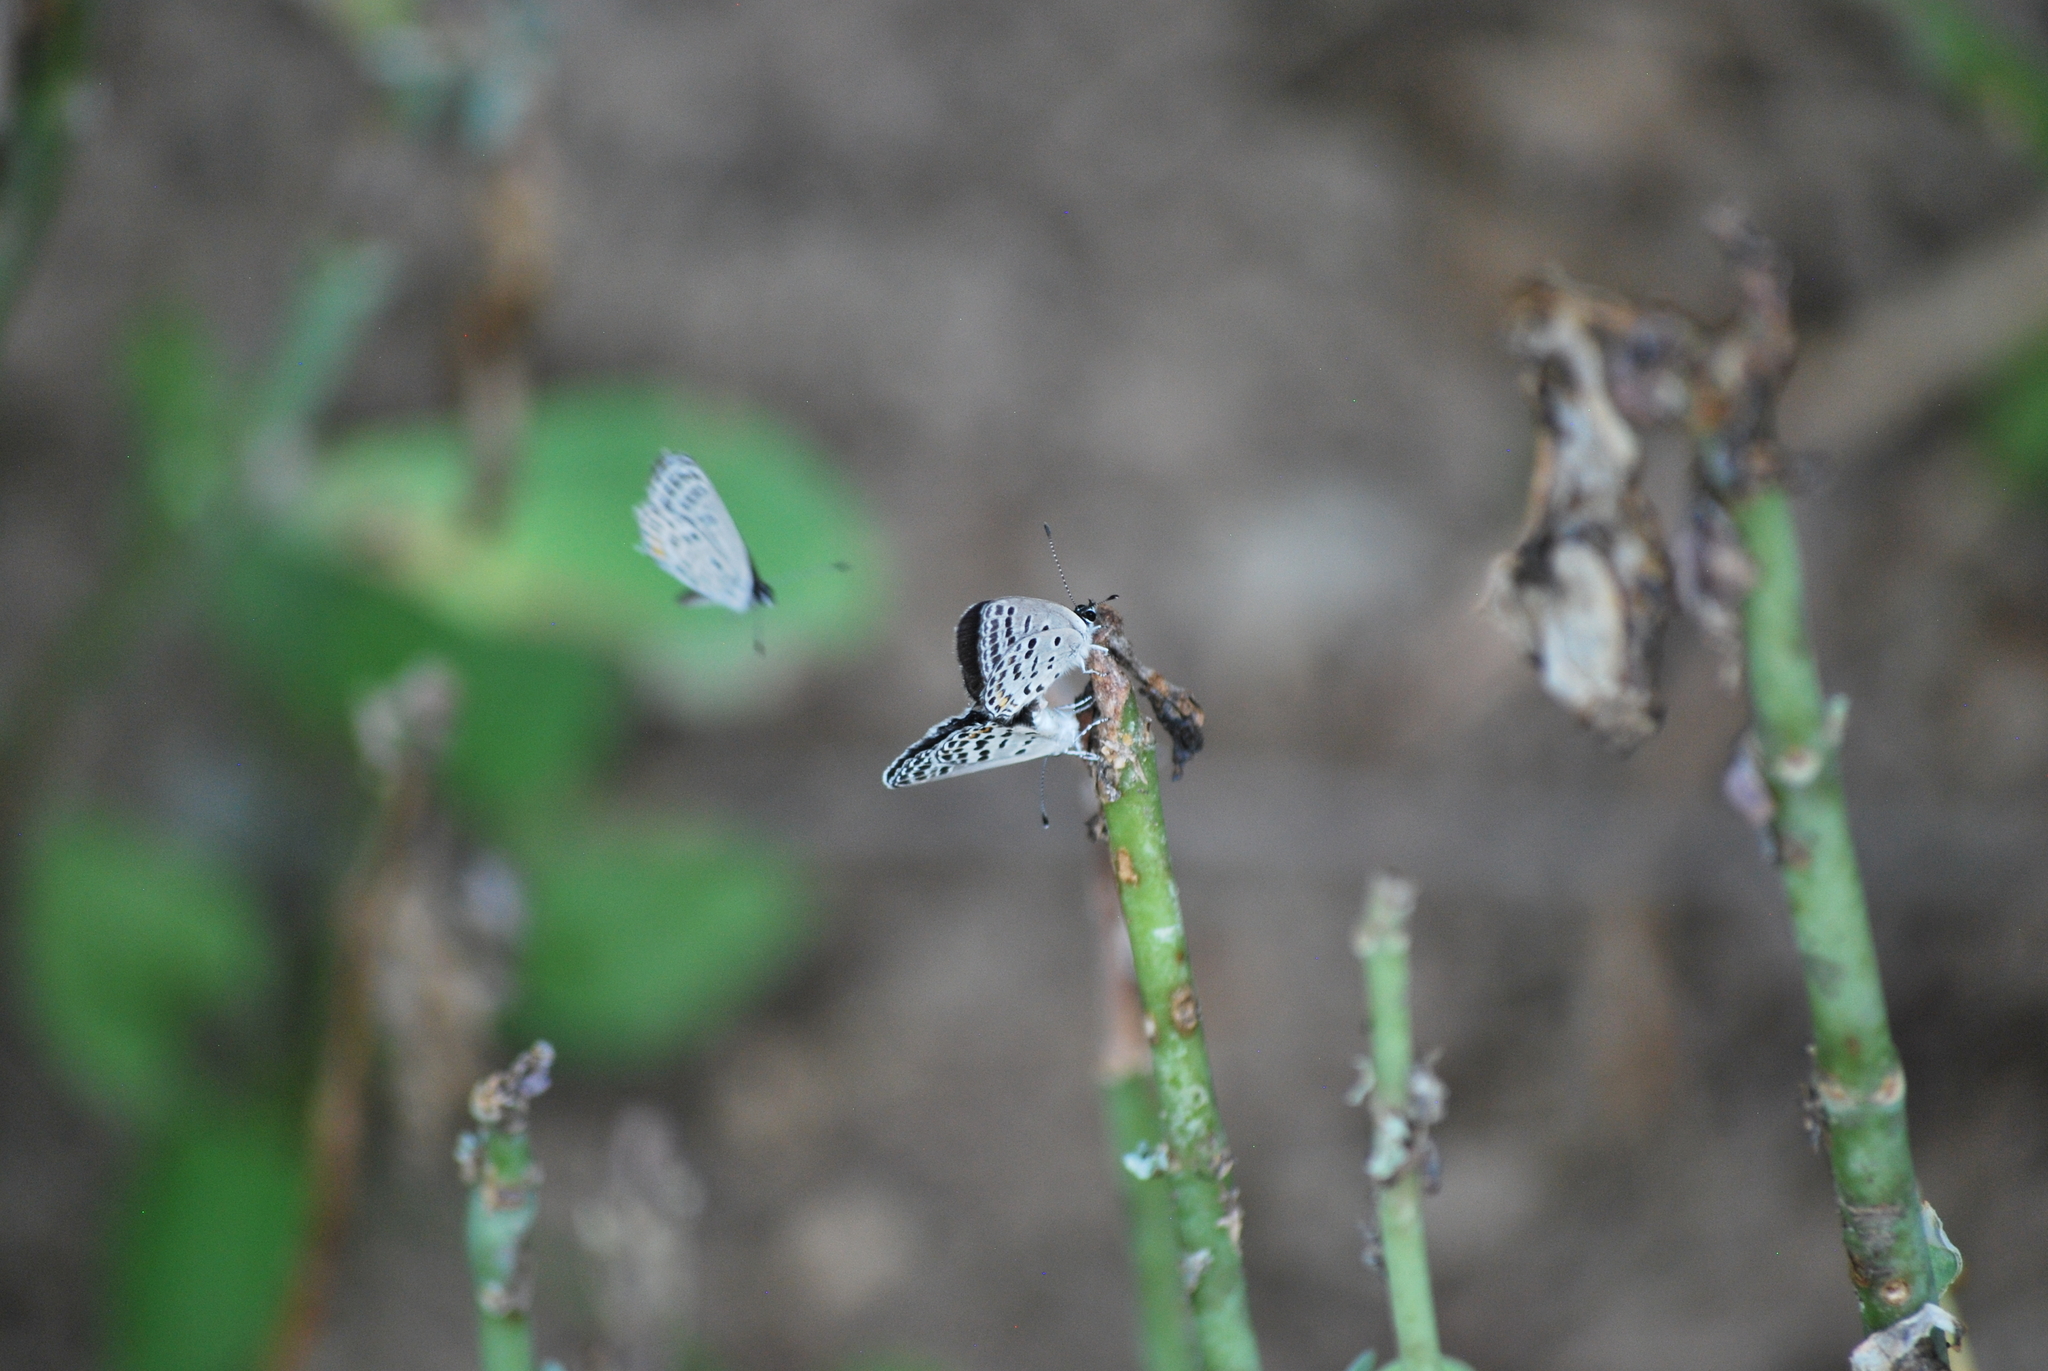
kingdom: Animalia
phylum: Arthropoda
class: Insecta
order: Lepidoptera
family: Lycaenidae
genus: Tongeia
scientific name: Tongeia filicaudis
